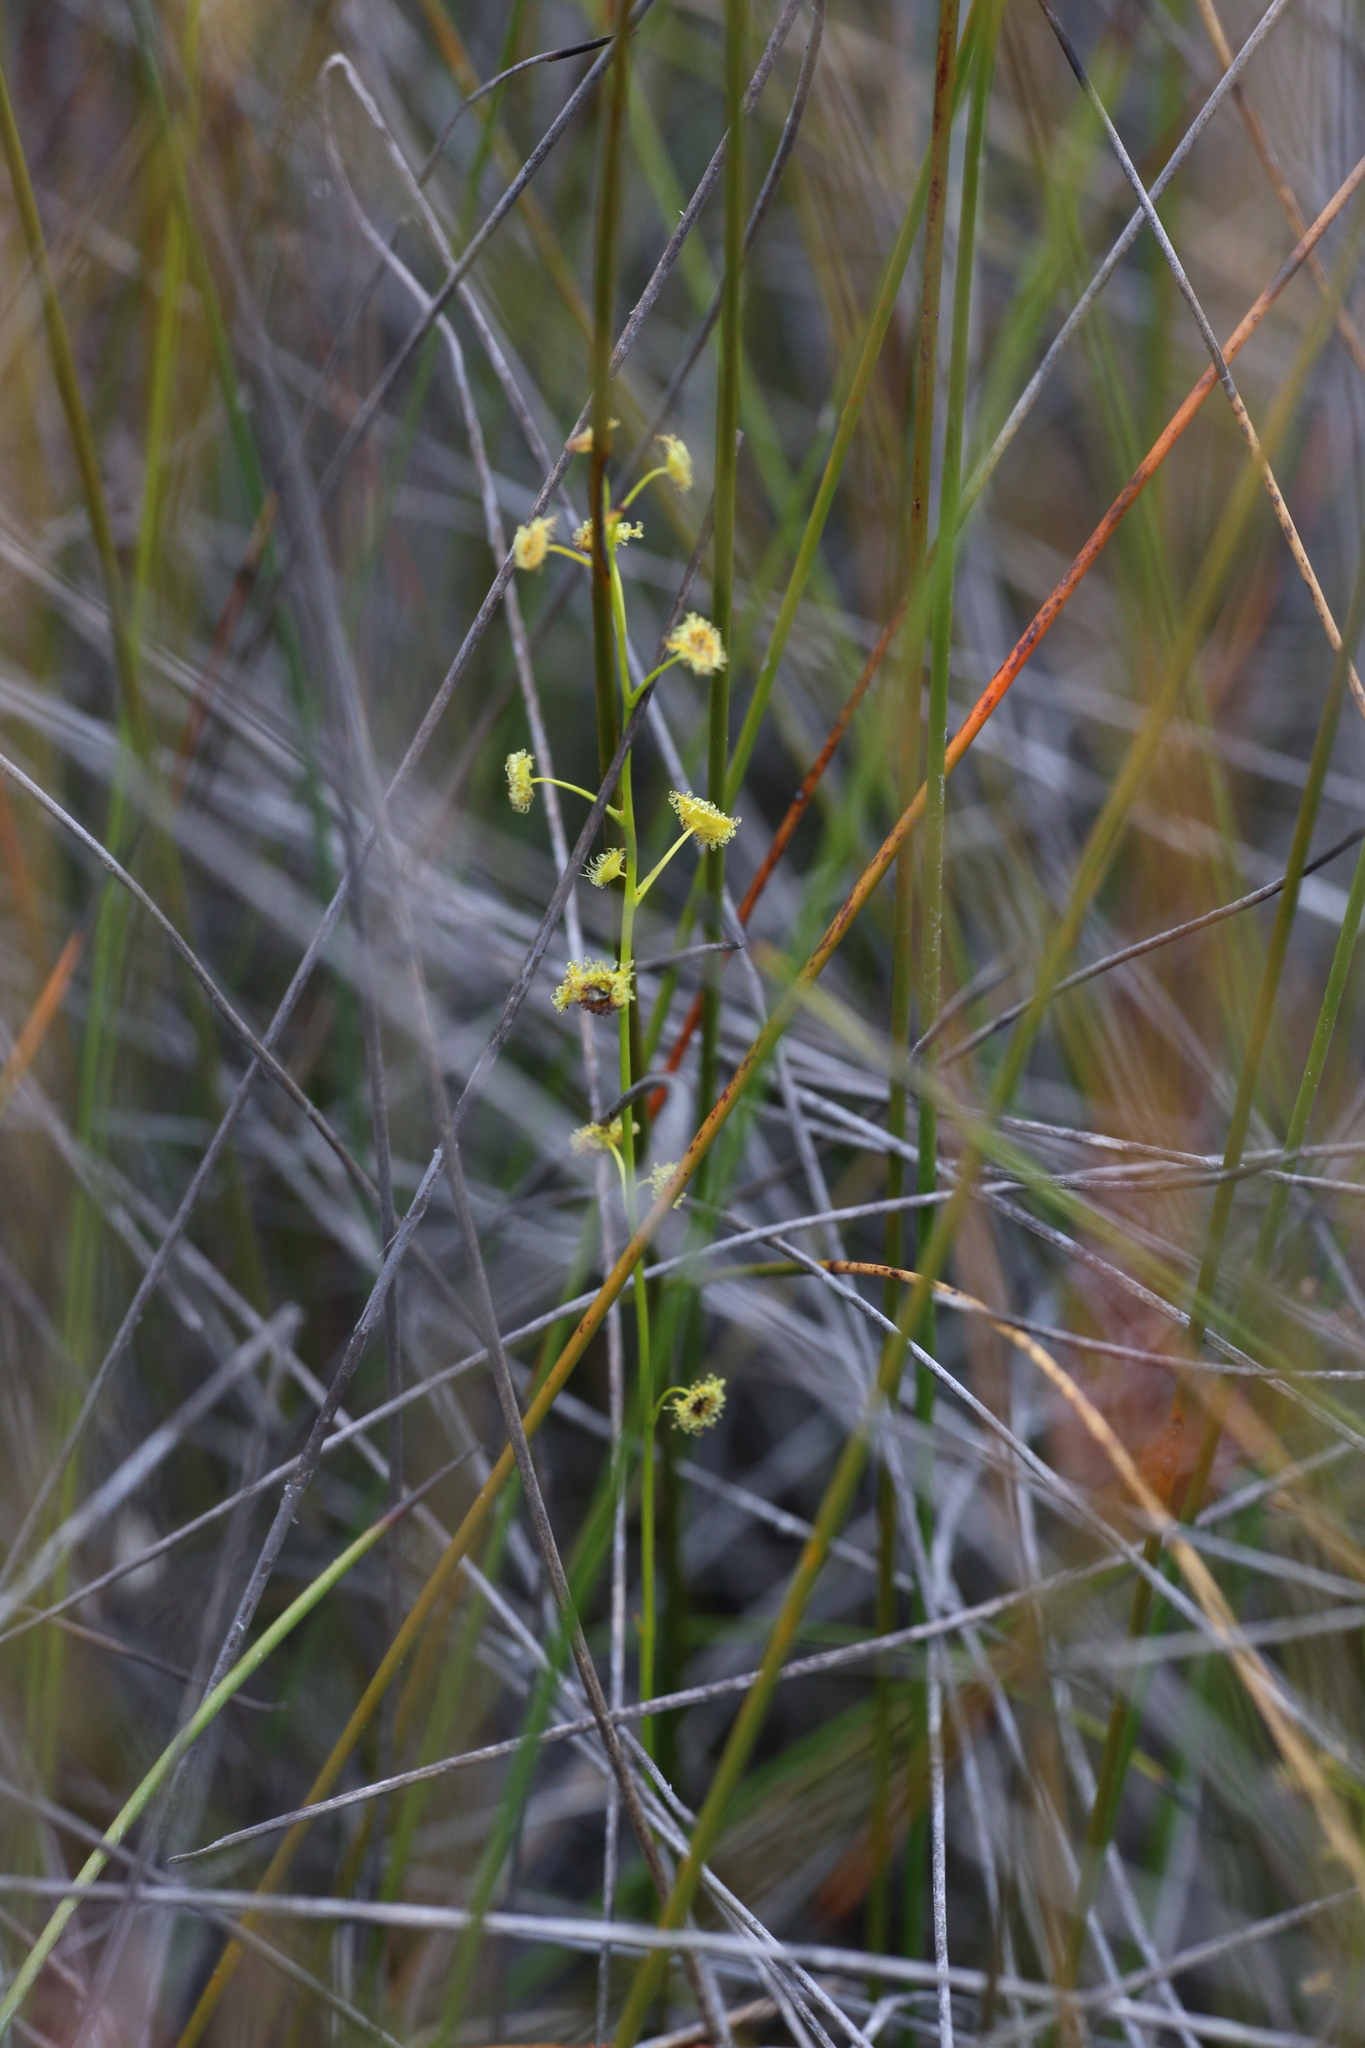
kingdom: Plantae
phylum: Tracheophyta
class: Magnoliopsida
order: Caryophyllales
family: Droseraceae
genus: Drosera
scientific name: Drosera neesii
